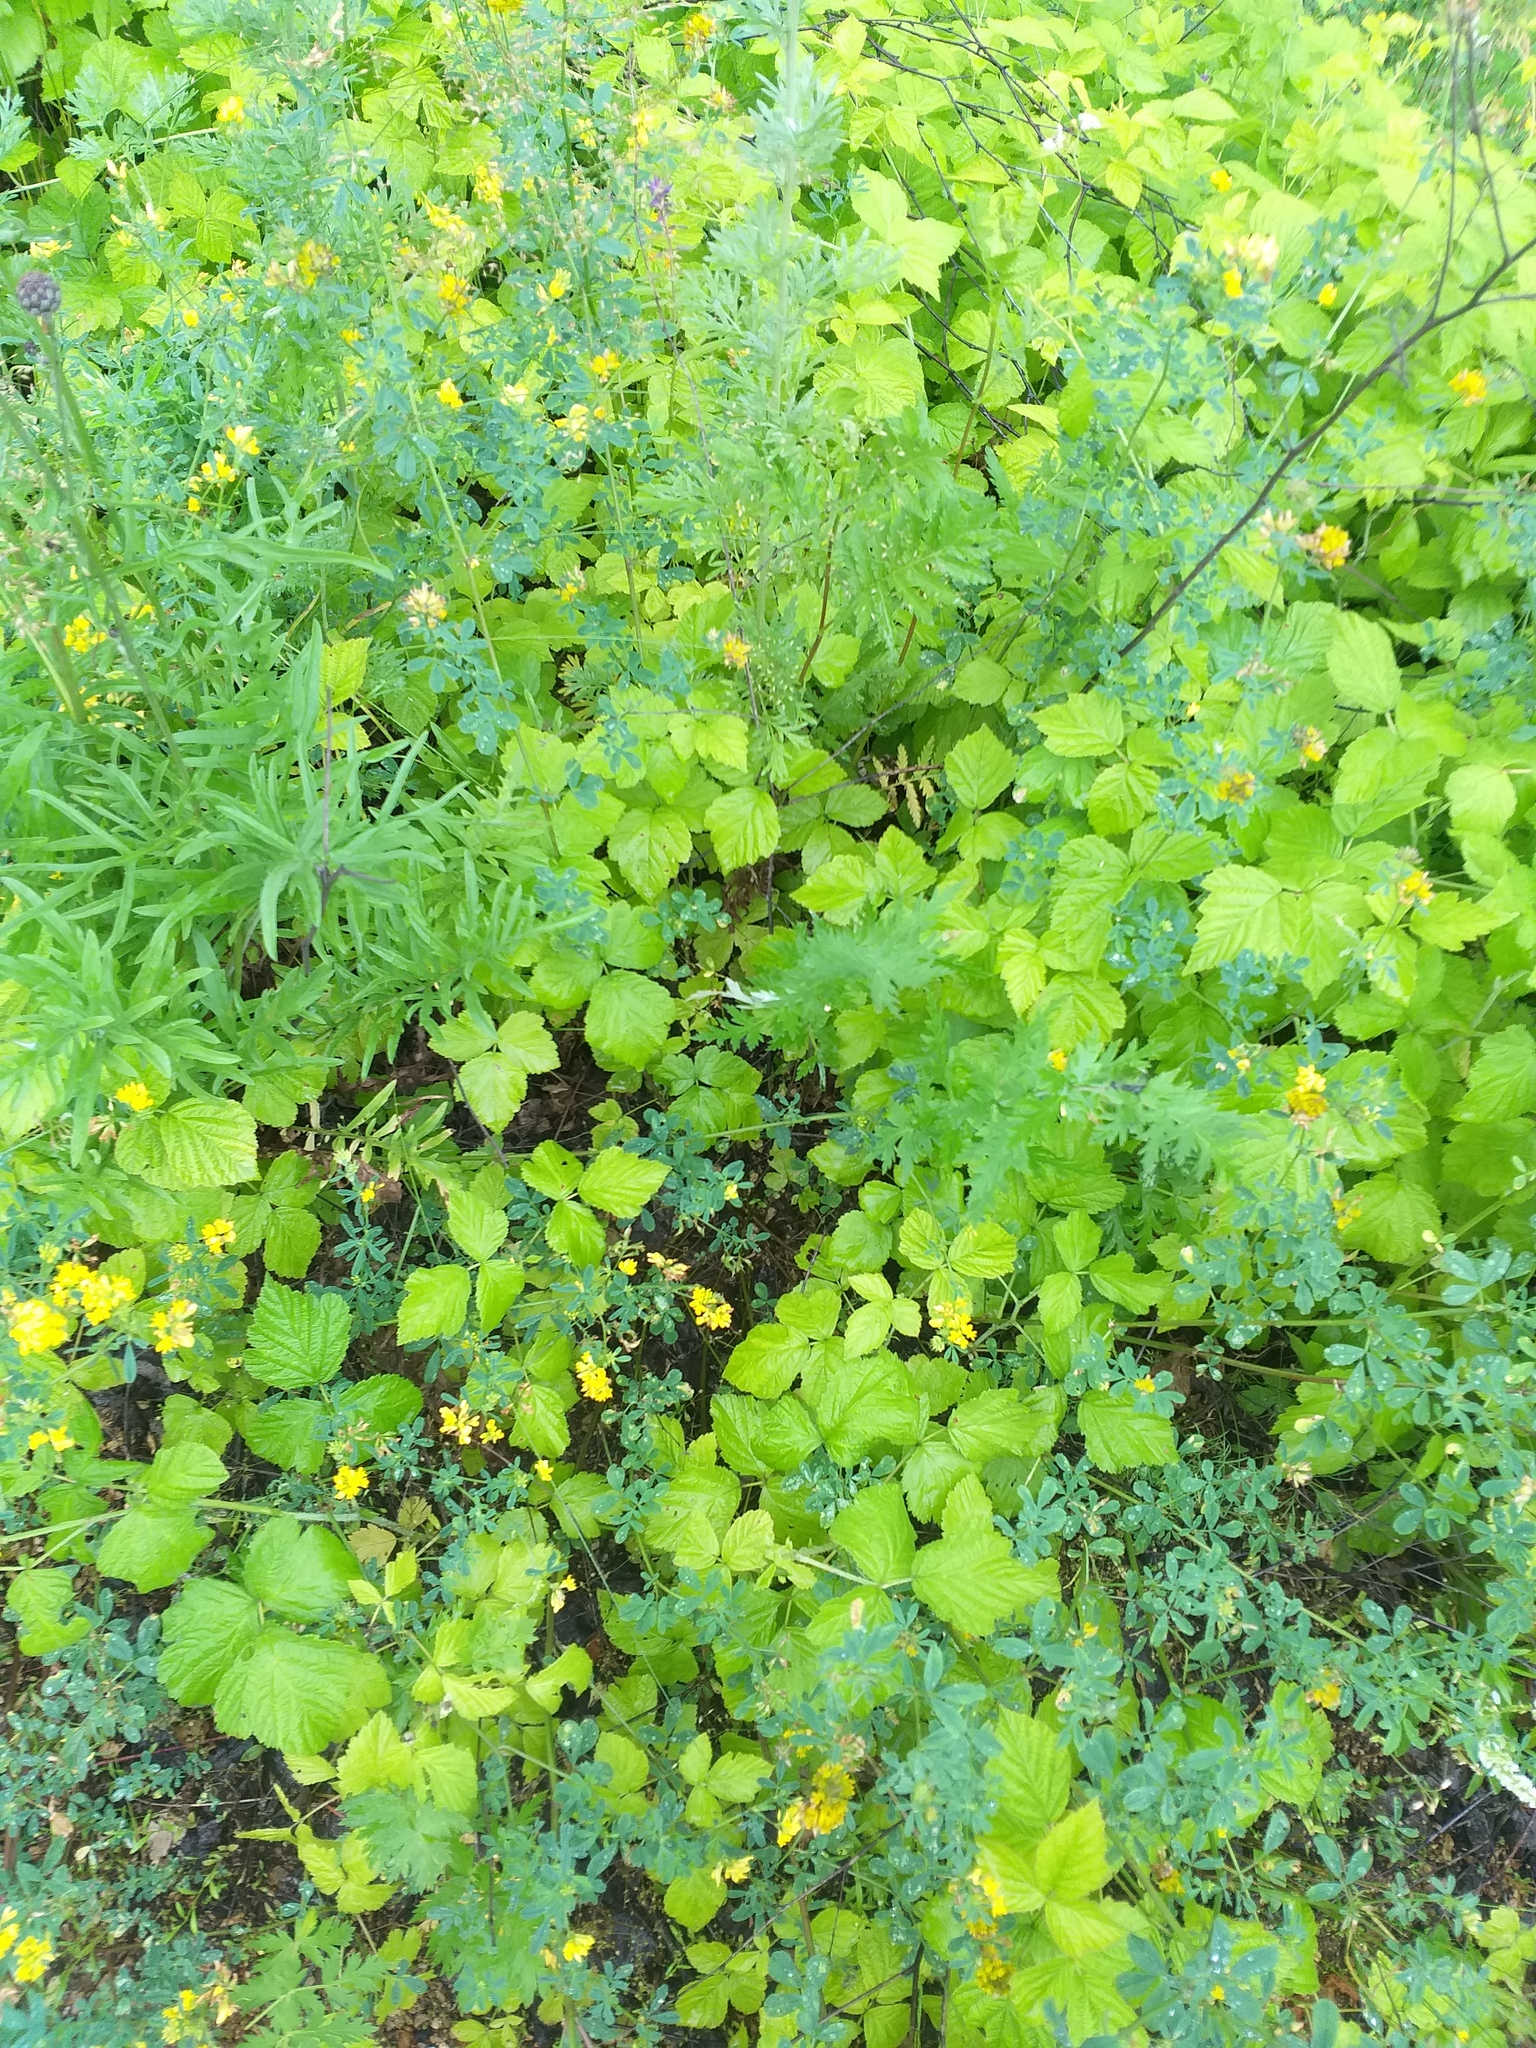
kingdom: Plantae
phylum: Tracheophyta
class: Magnoliopsida
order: Rosales
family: Rosaceae
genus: Rubus
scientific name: Rubus caesius
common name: Dewberry
